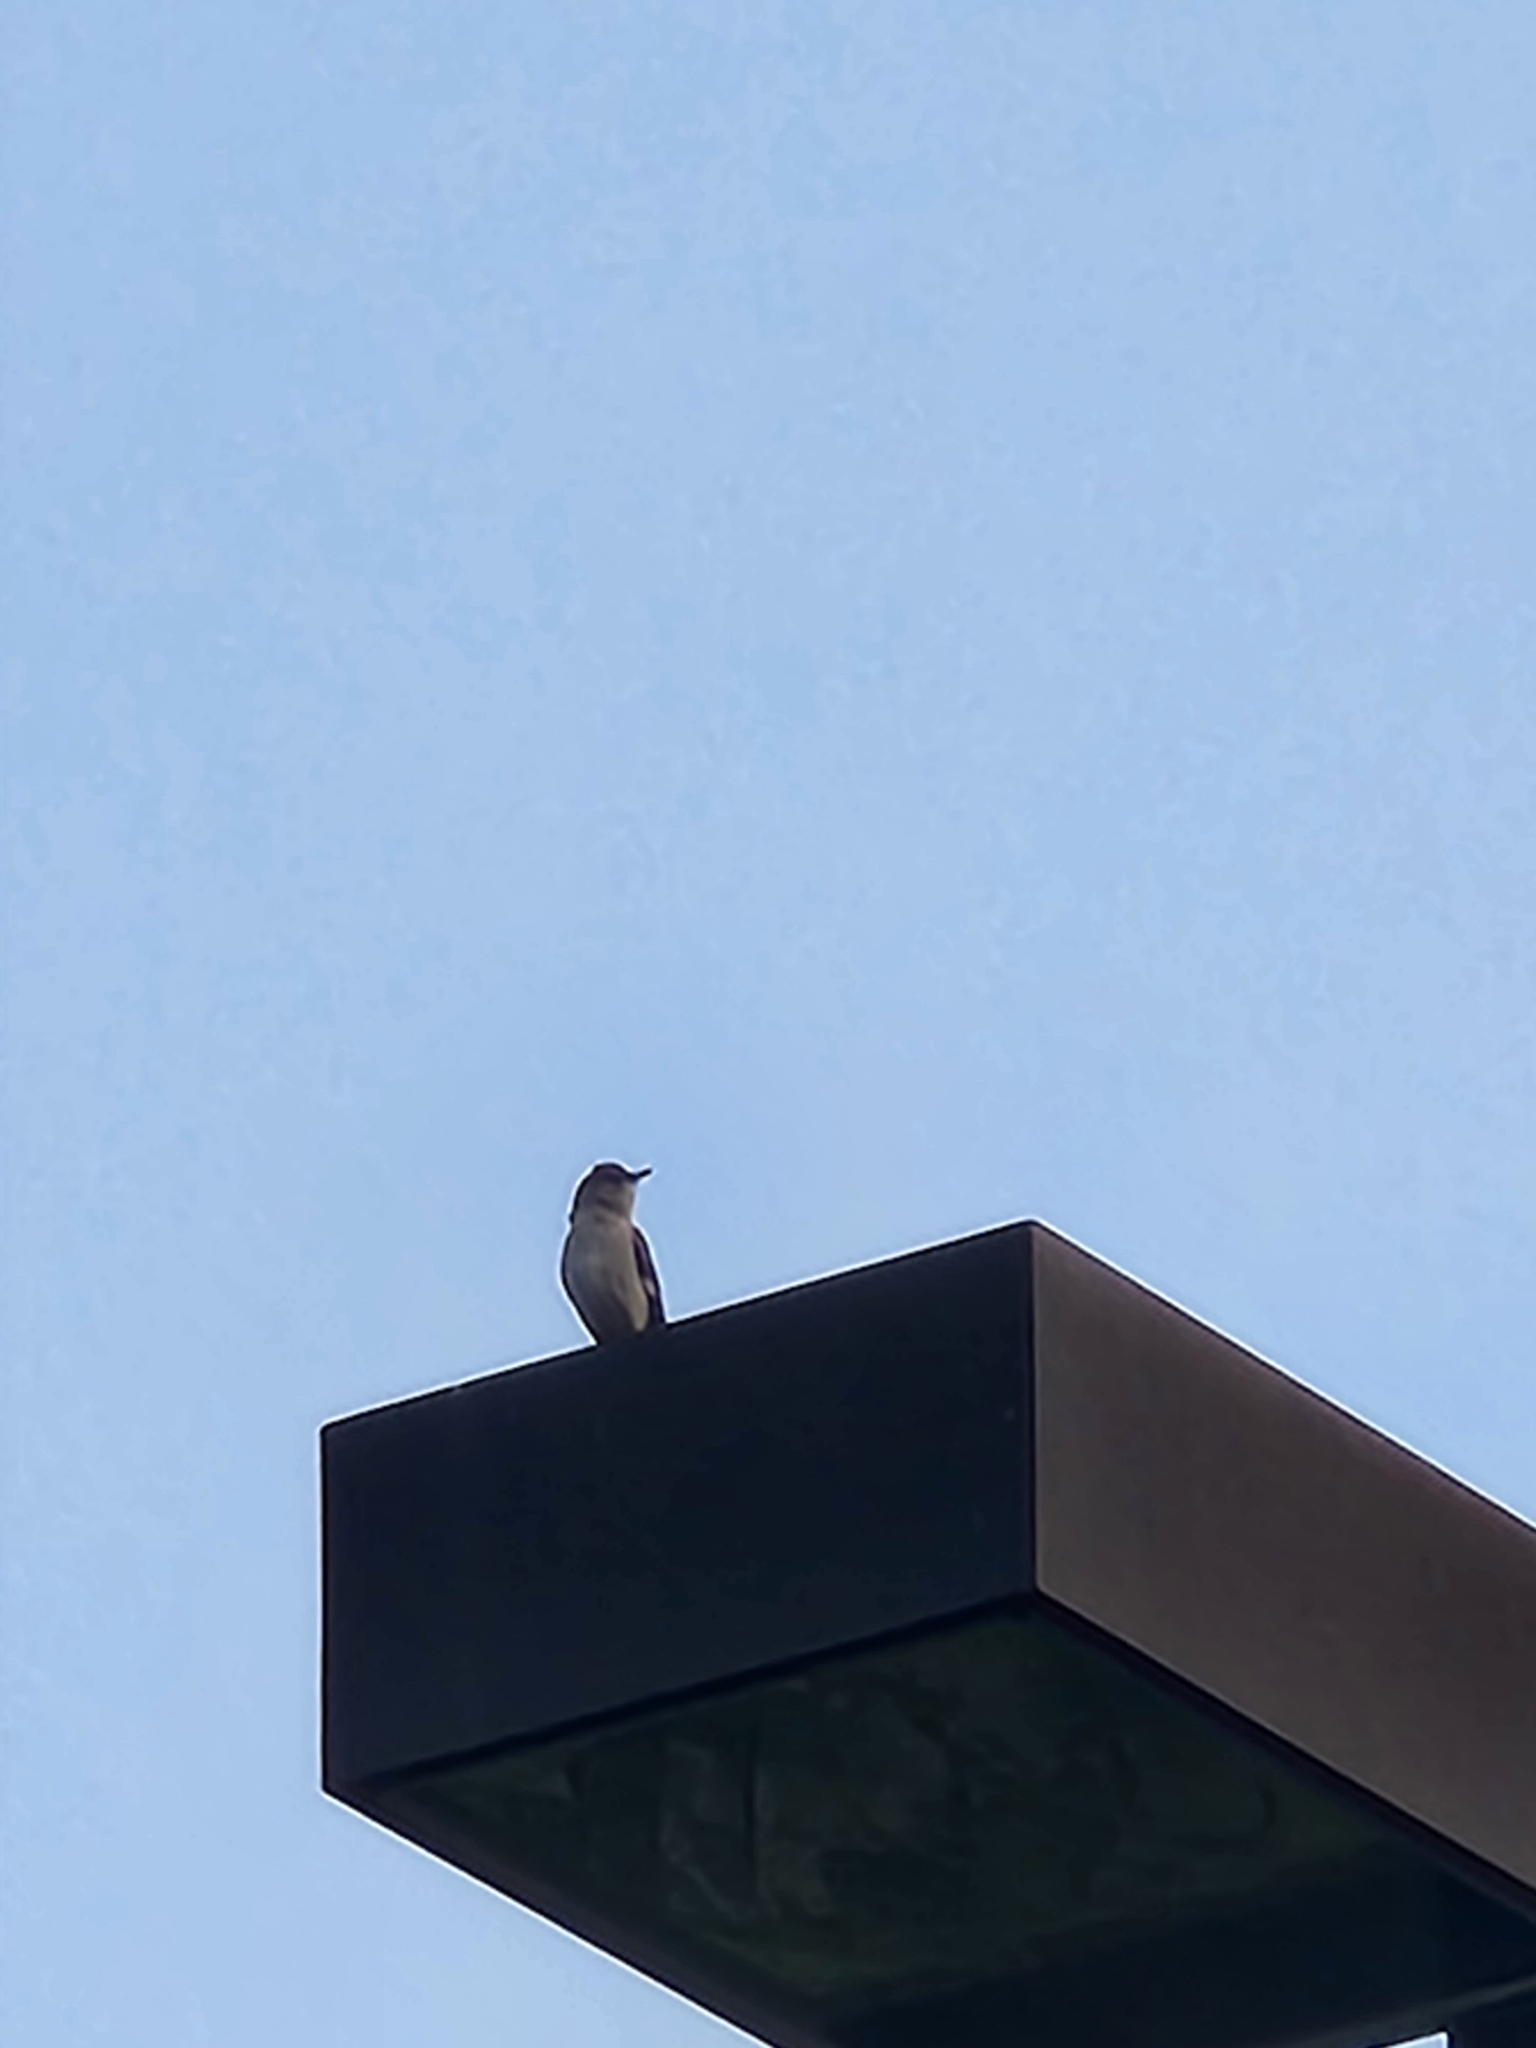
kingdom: Animalia
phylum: Chordata
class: Aves
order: Passeriformes
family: Mimidae
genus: Mimus
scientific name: Mimus polyglottos
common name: Northern mockingbird
